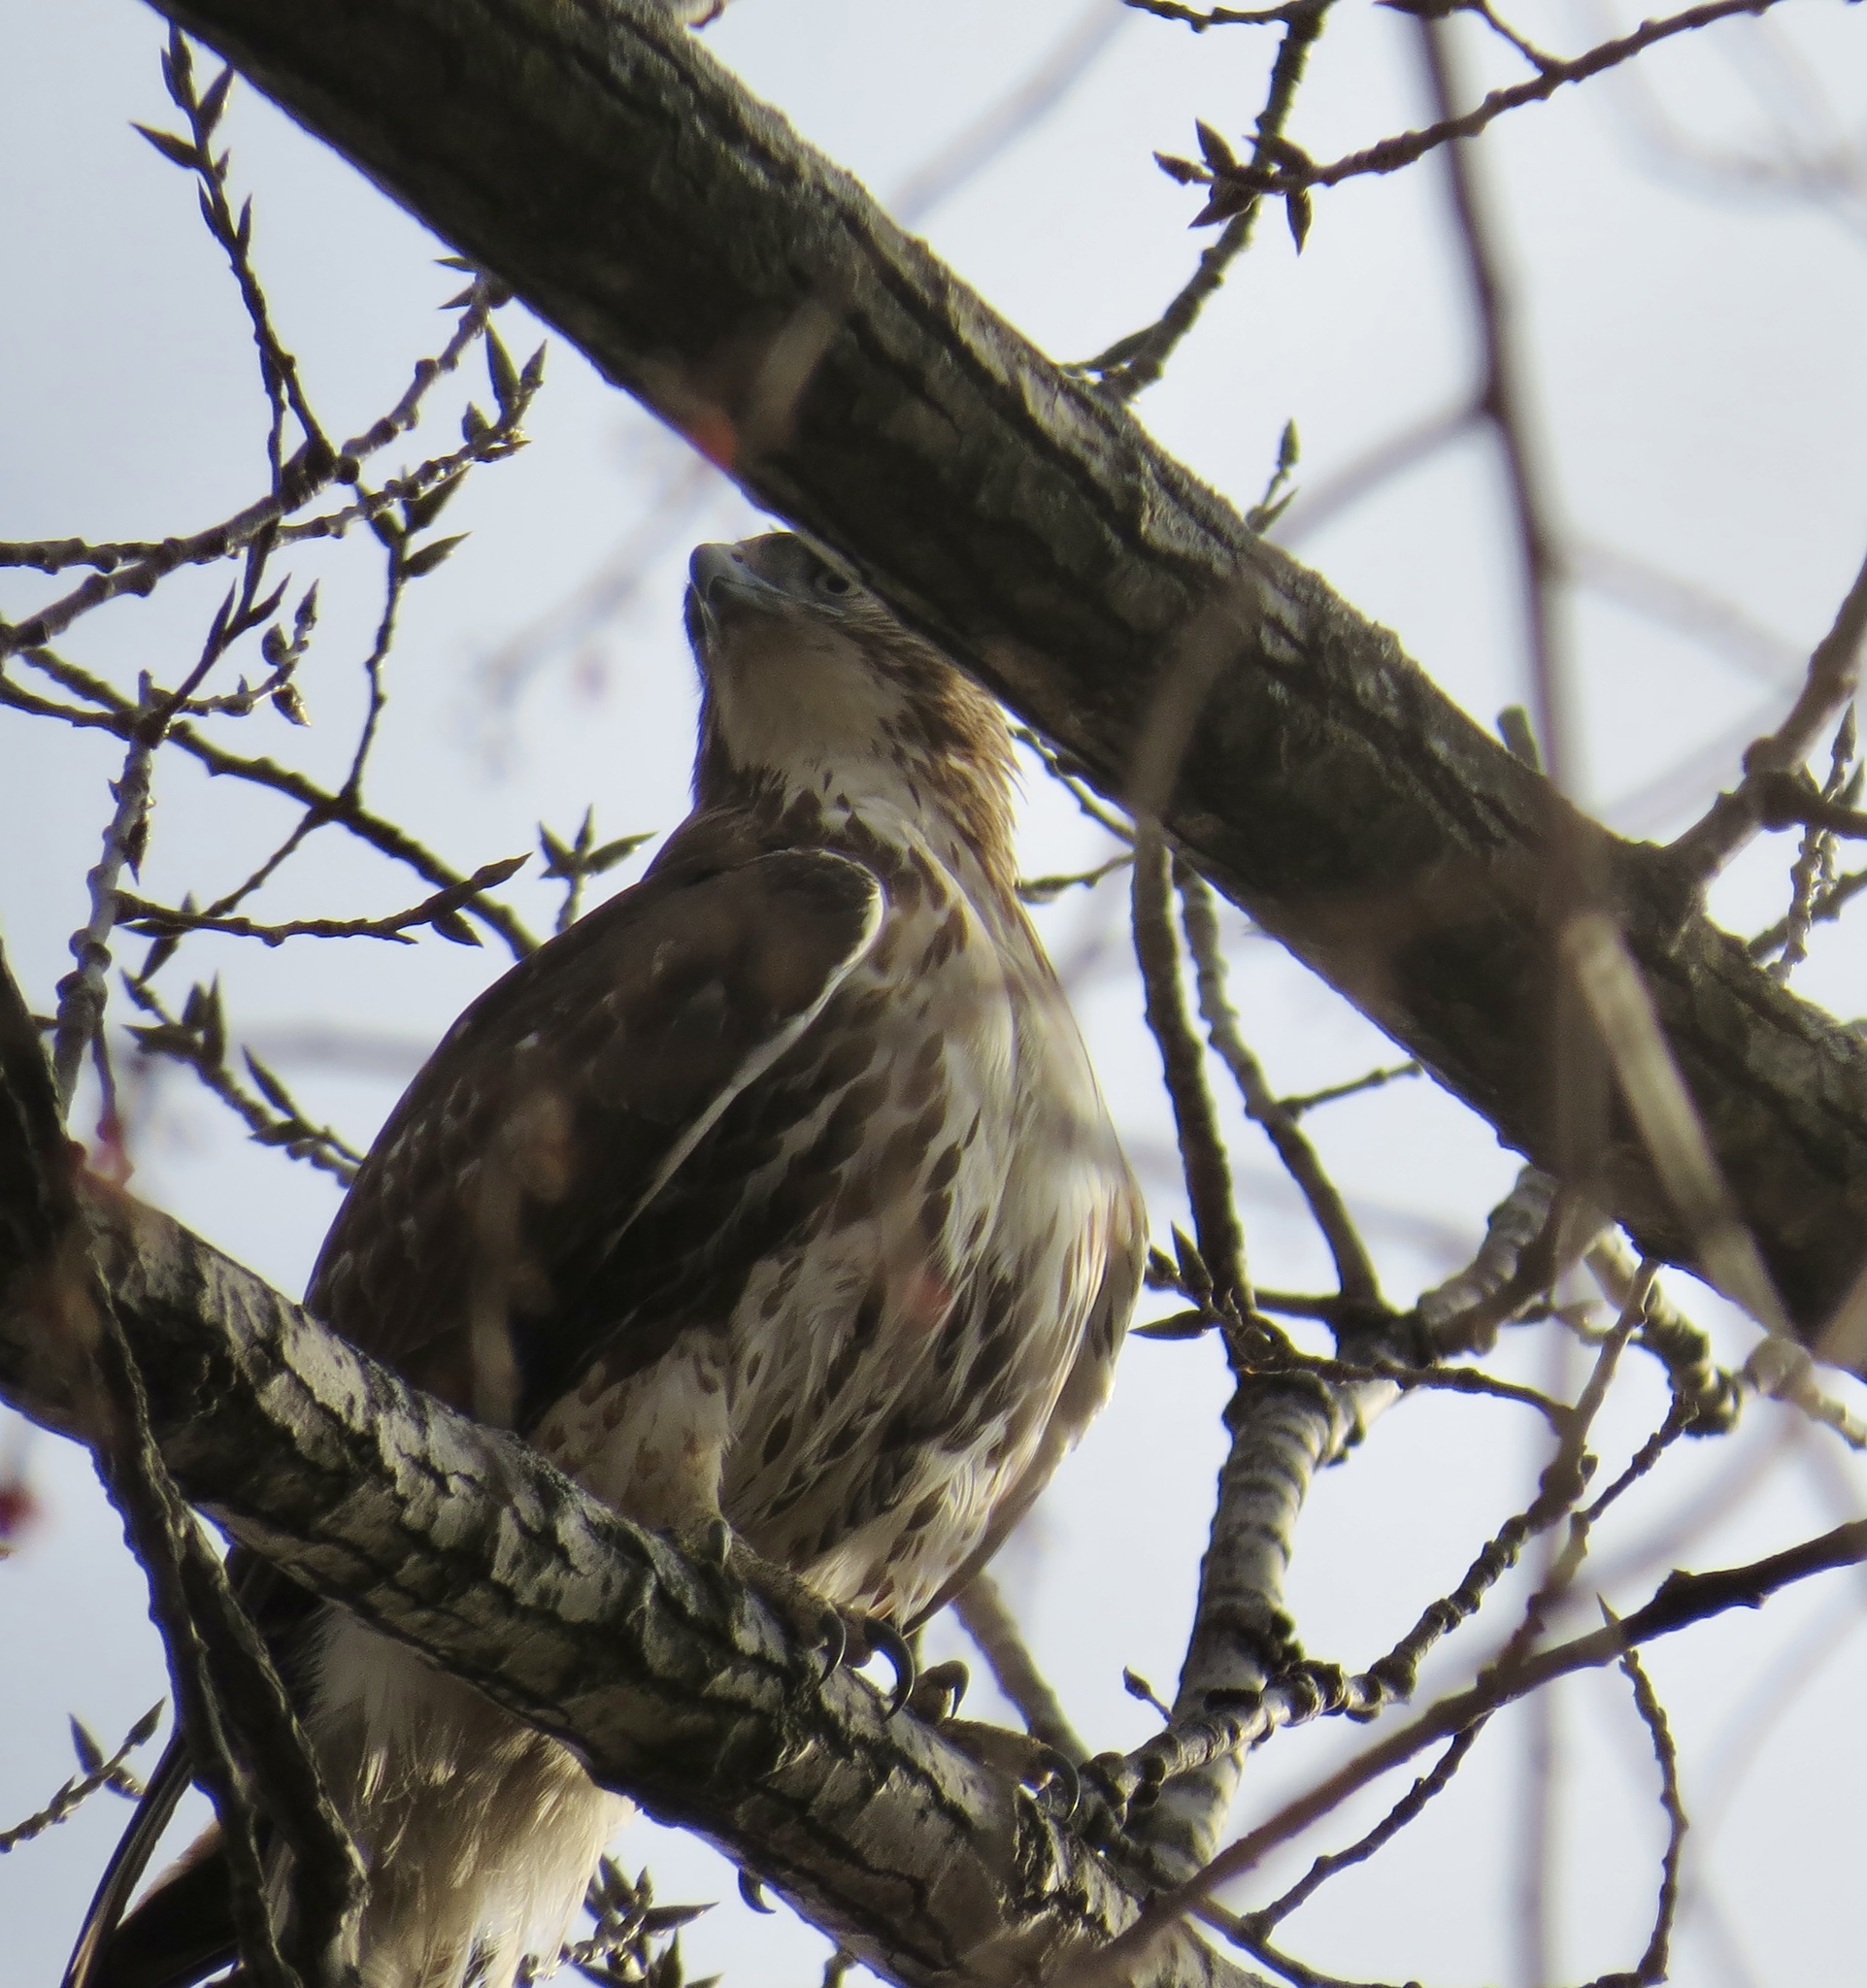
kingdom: Animalia
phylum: Chordata
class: Aves
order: Accipitriformes
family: Accipitridae
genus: Buteo
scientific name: Buteo jamaicensis
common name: Red-tailed hawk
